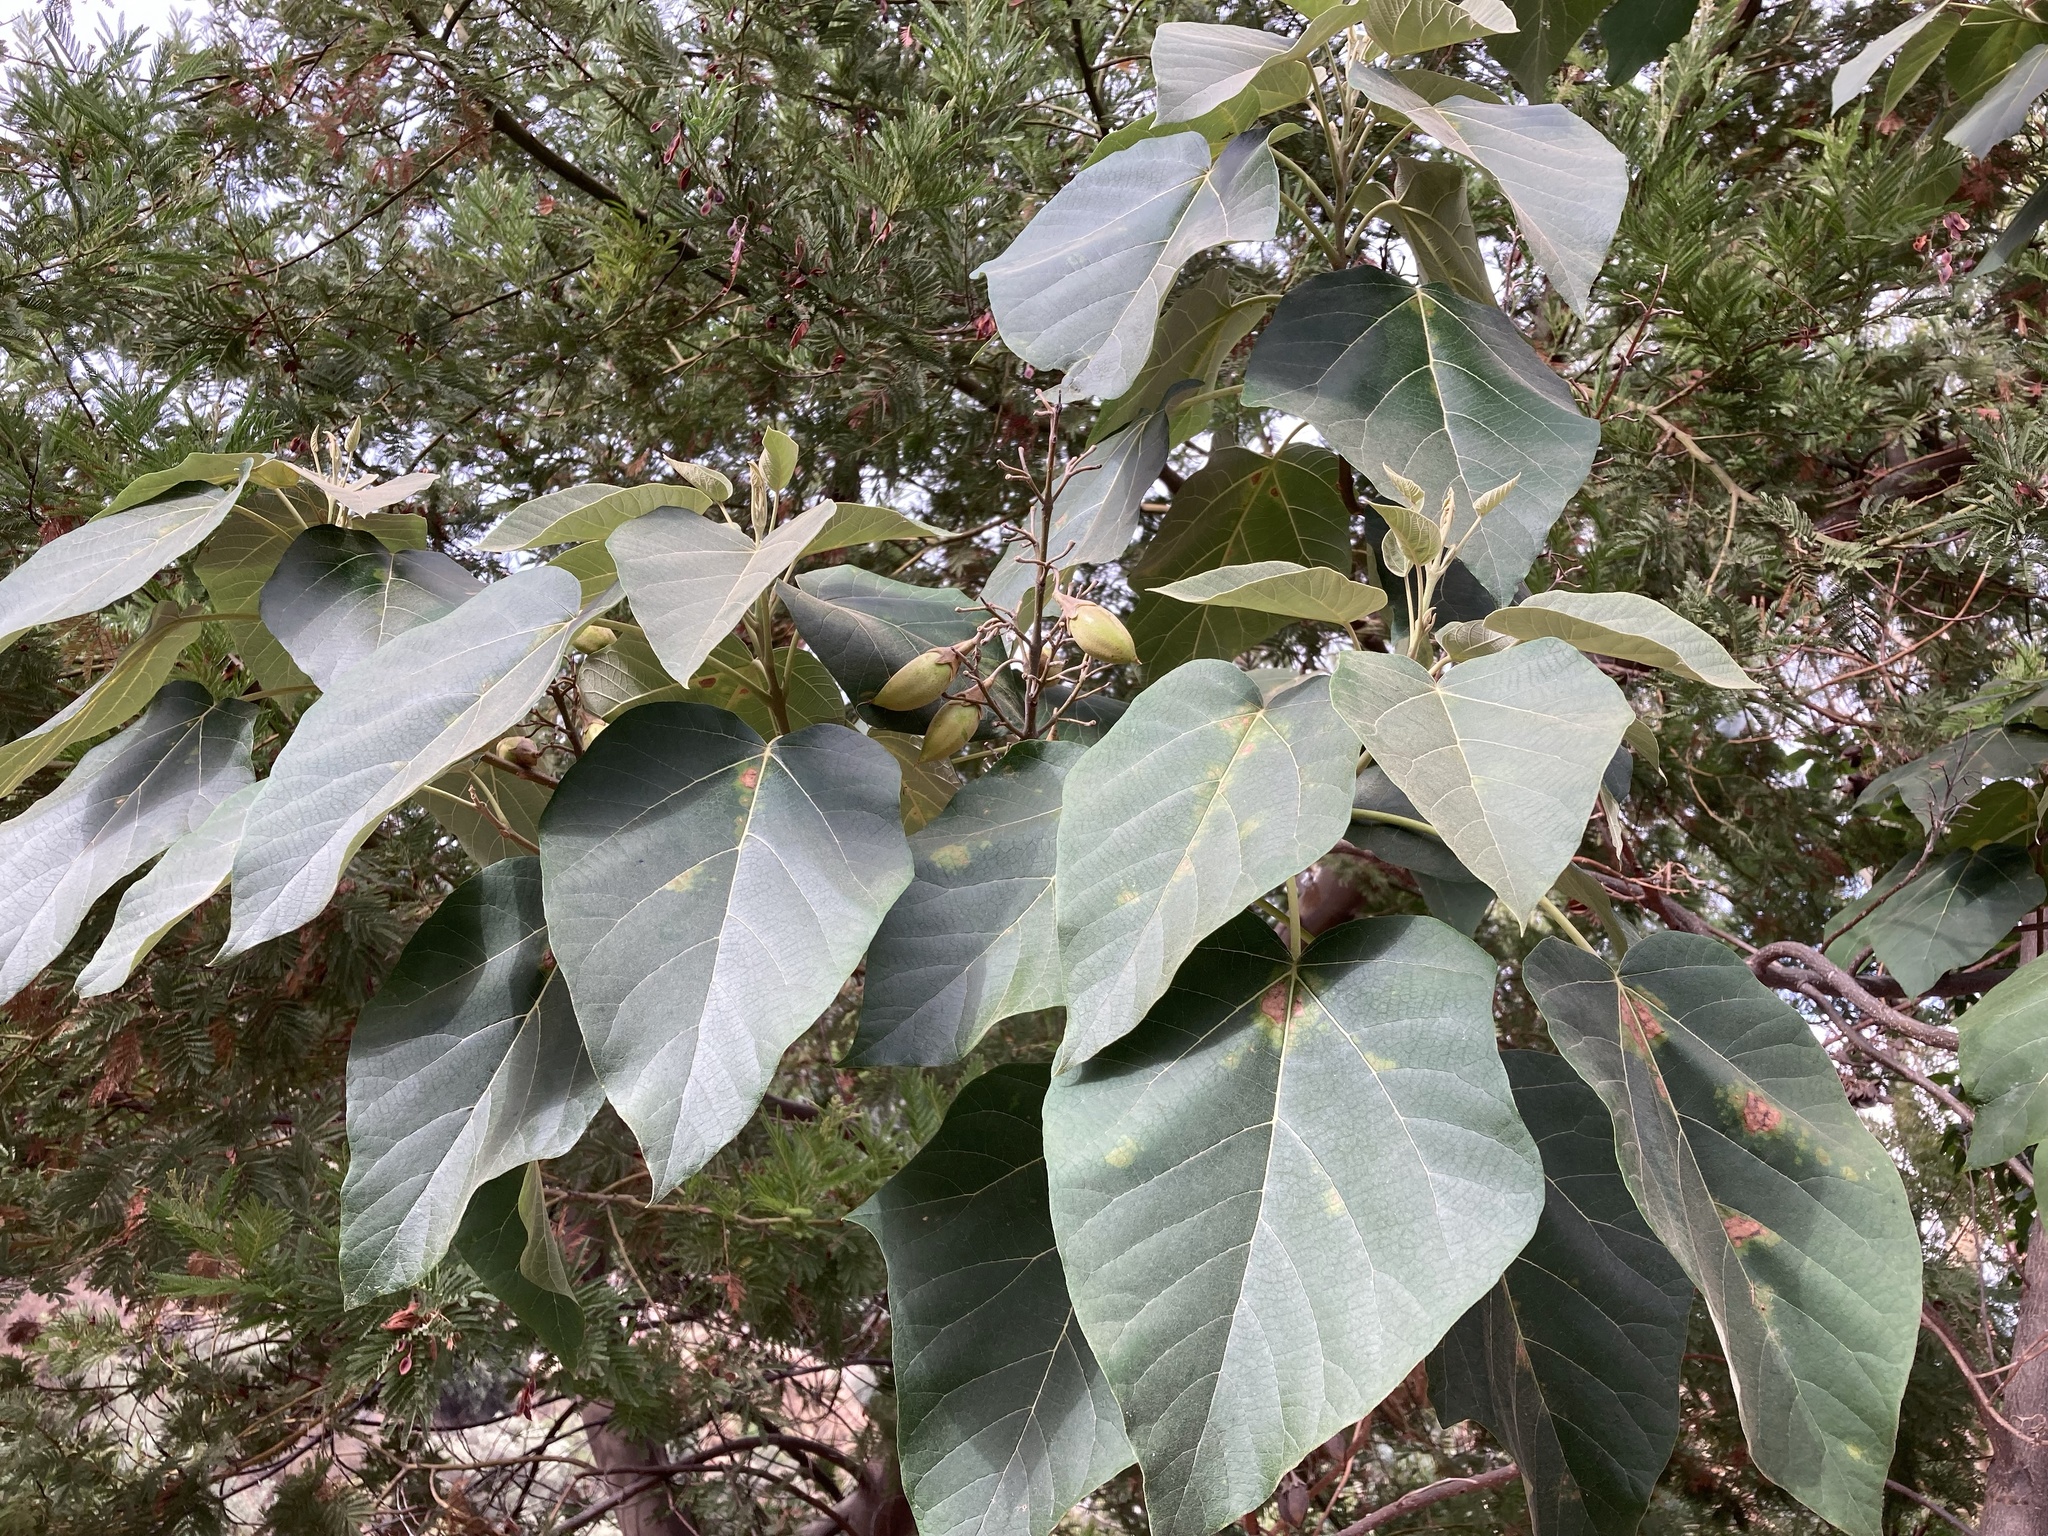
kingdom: Plantae
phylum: Tracheophyta
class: Magnoliopsida
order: Lamiales
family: Paulowniaceae
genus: Paulownia
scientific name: Paulownia tomentosa
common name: Foxglove-tree
